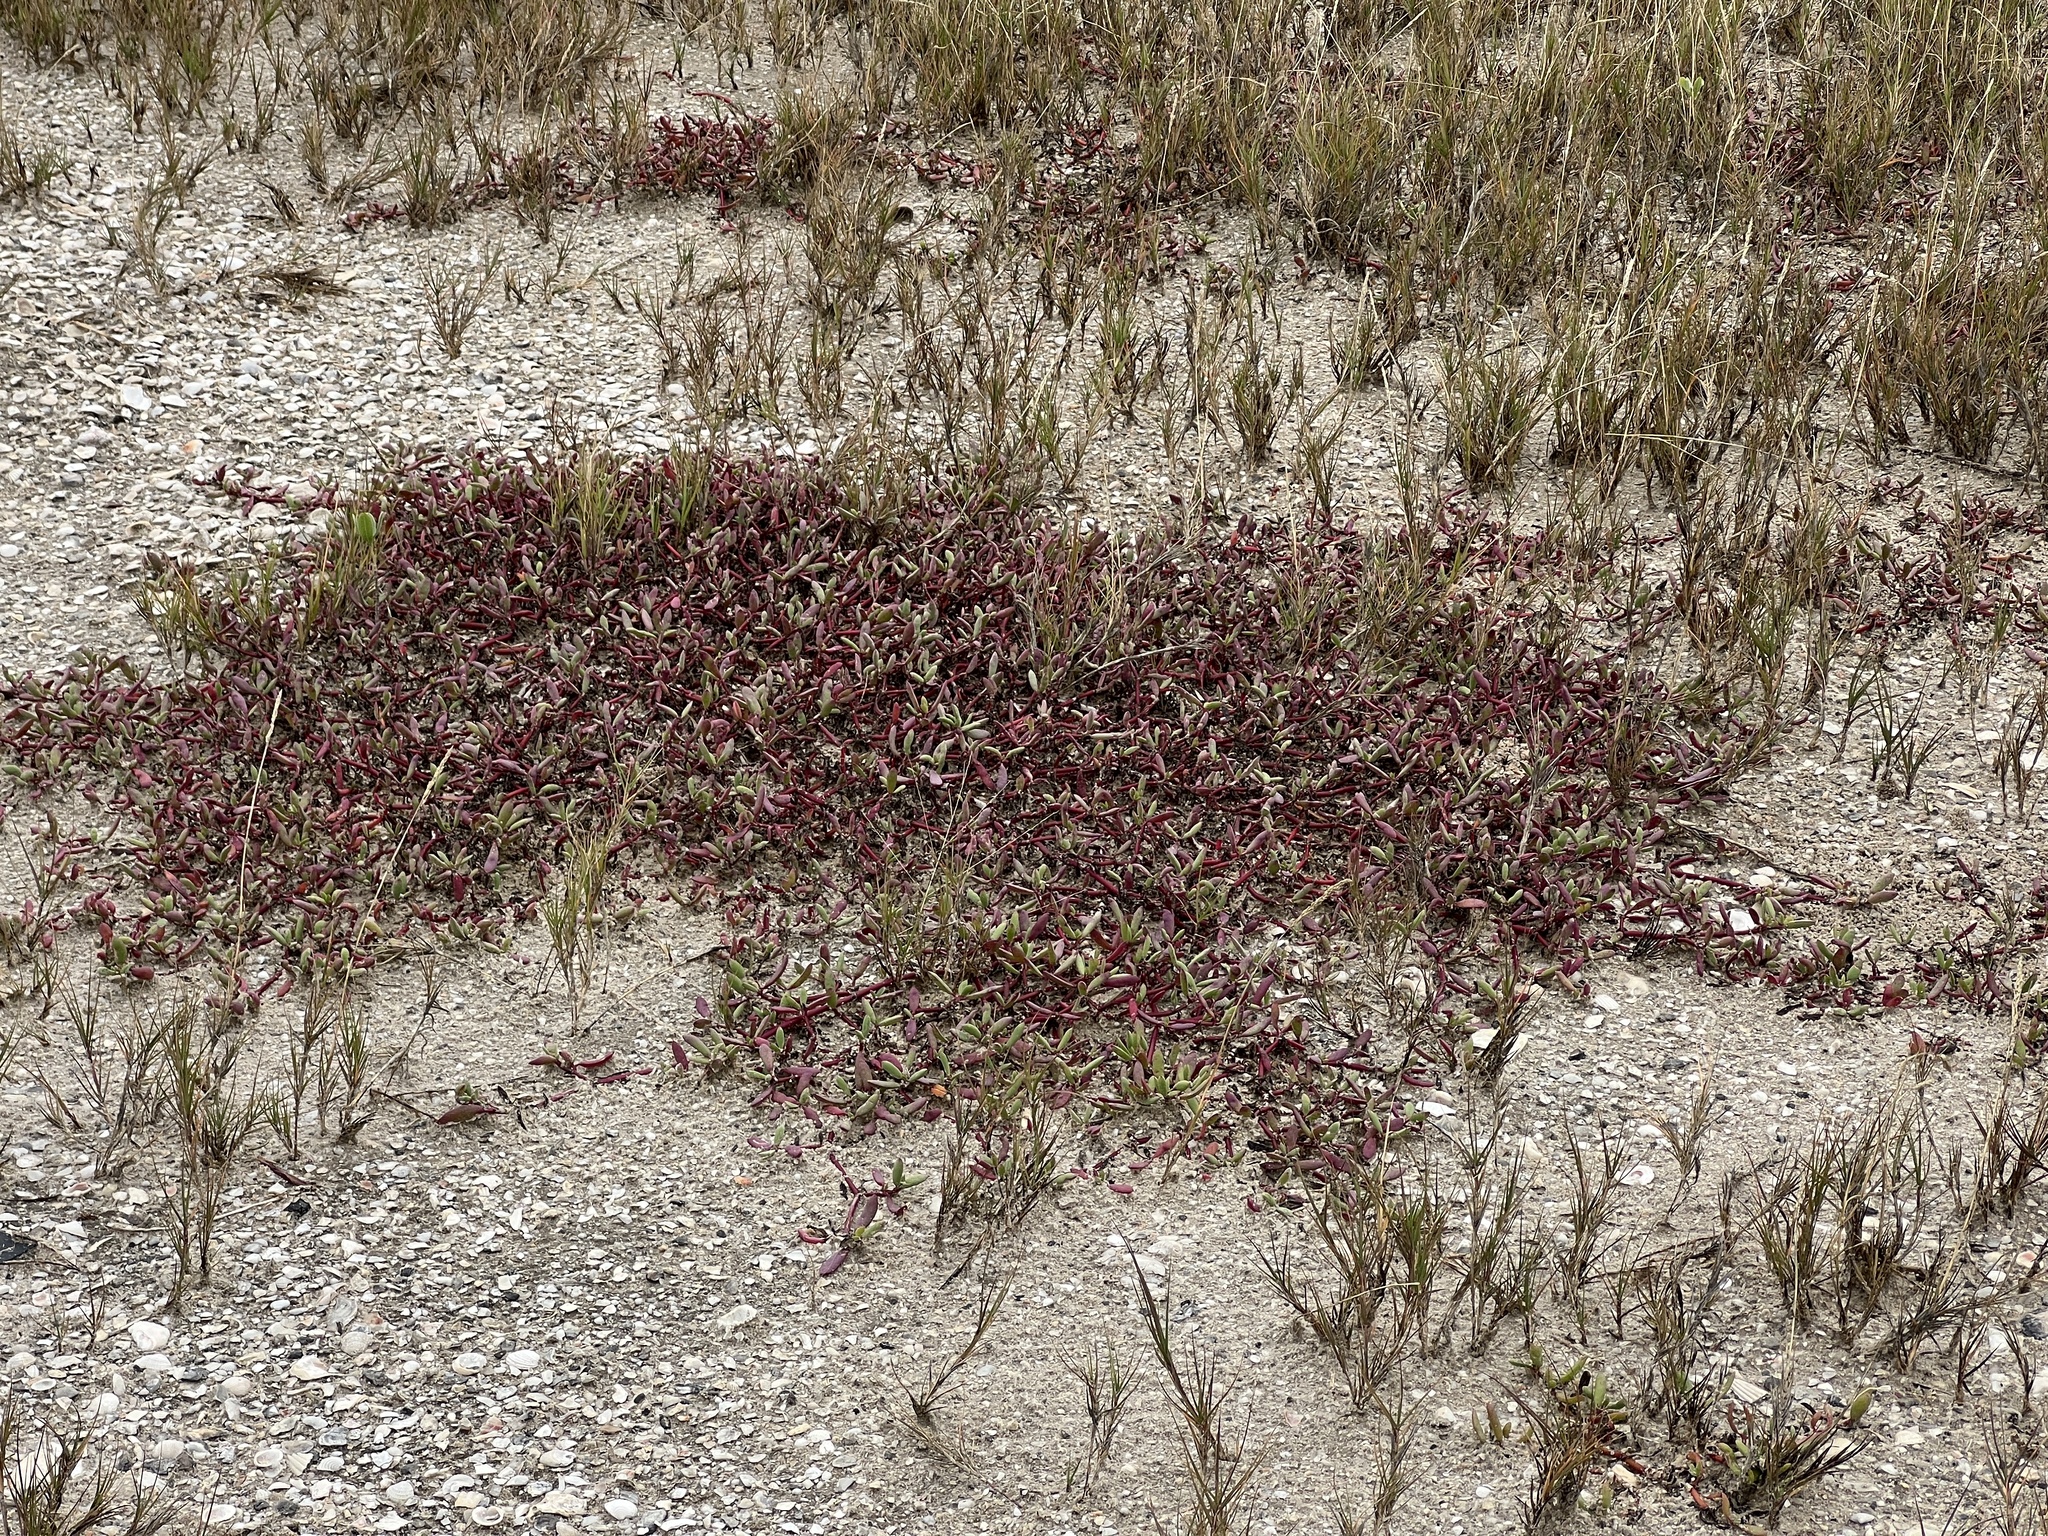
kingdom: Plantae
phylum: Tracheophyta
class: Magnoliopsida
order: Caryophyllales
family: Aizoaceae
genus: Sesuvium
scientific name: Sesuvium portulacastrum
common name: Sea-purslane
